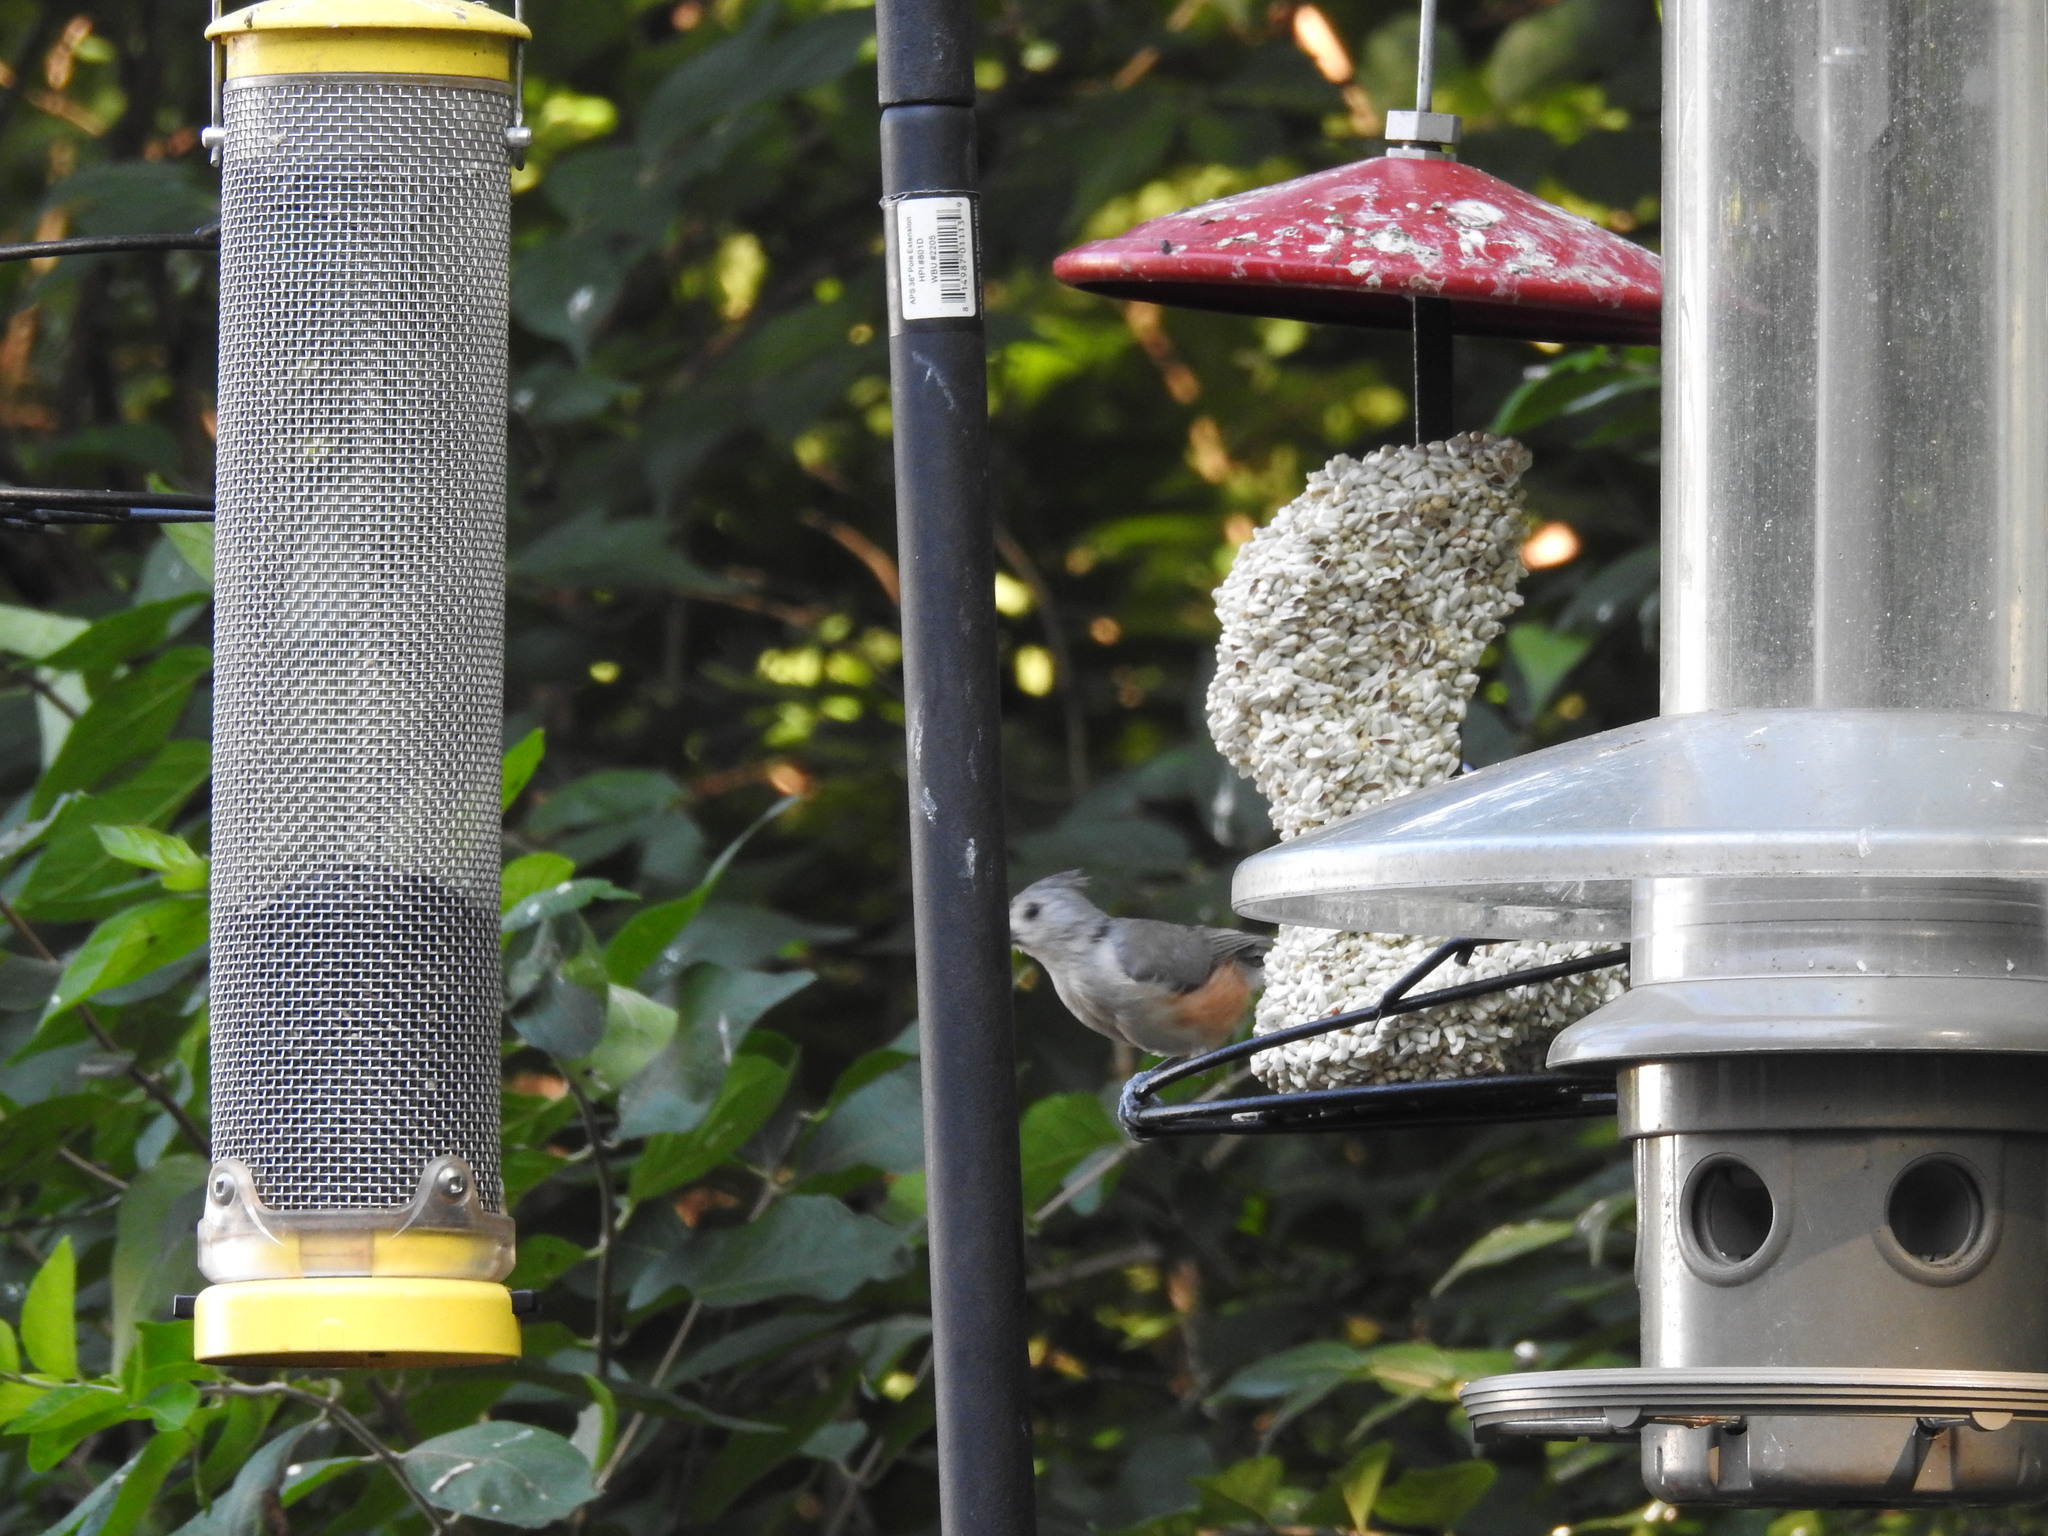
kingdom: Animalia
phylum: Chordata
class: Aves
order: Passeriformes
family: Paridae
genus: Baeolophus
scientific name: Baeolophus bicolor
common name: Tufted titmouse
